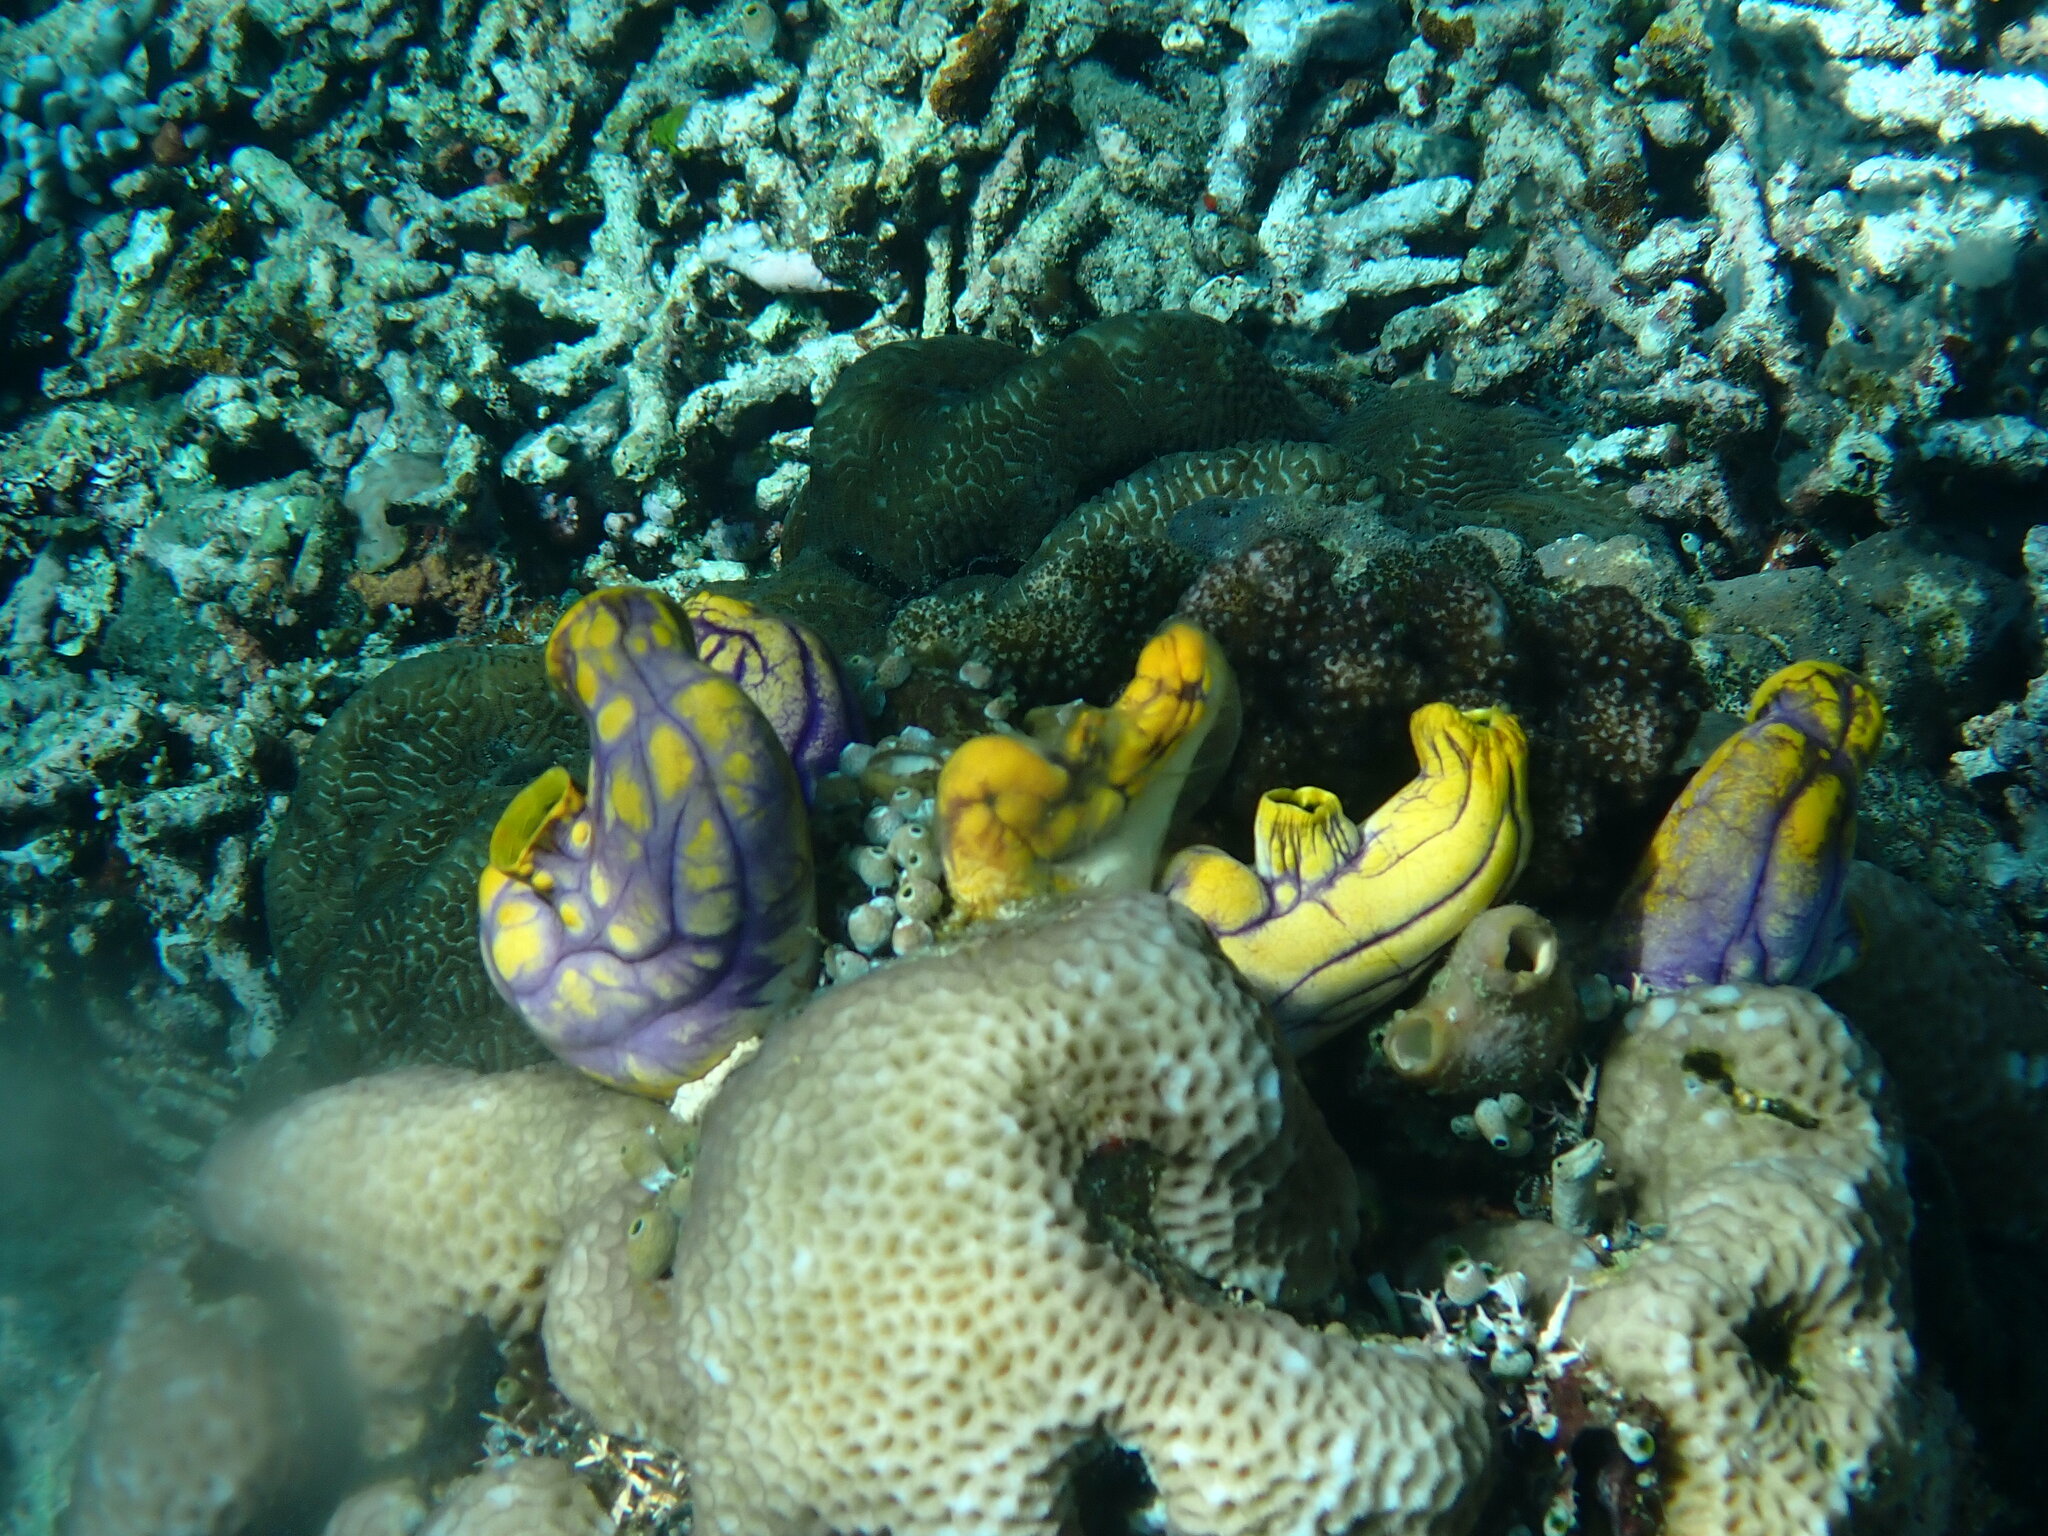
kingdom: Animalia
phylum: Chordata
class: Ascidiacea
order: Stolidobranchia
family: Styelidae
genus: Polycarpa
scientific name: Polycarpa aurata
